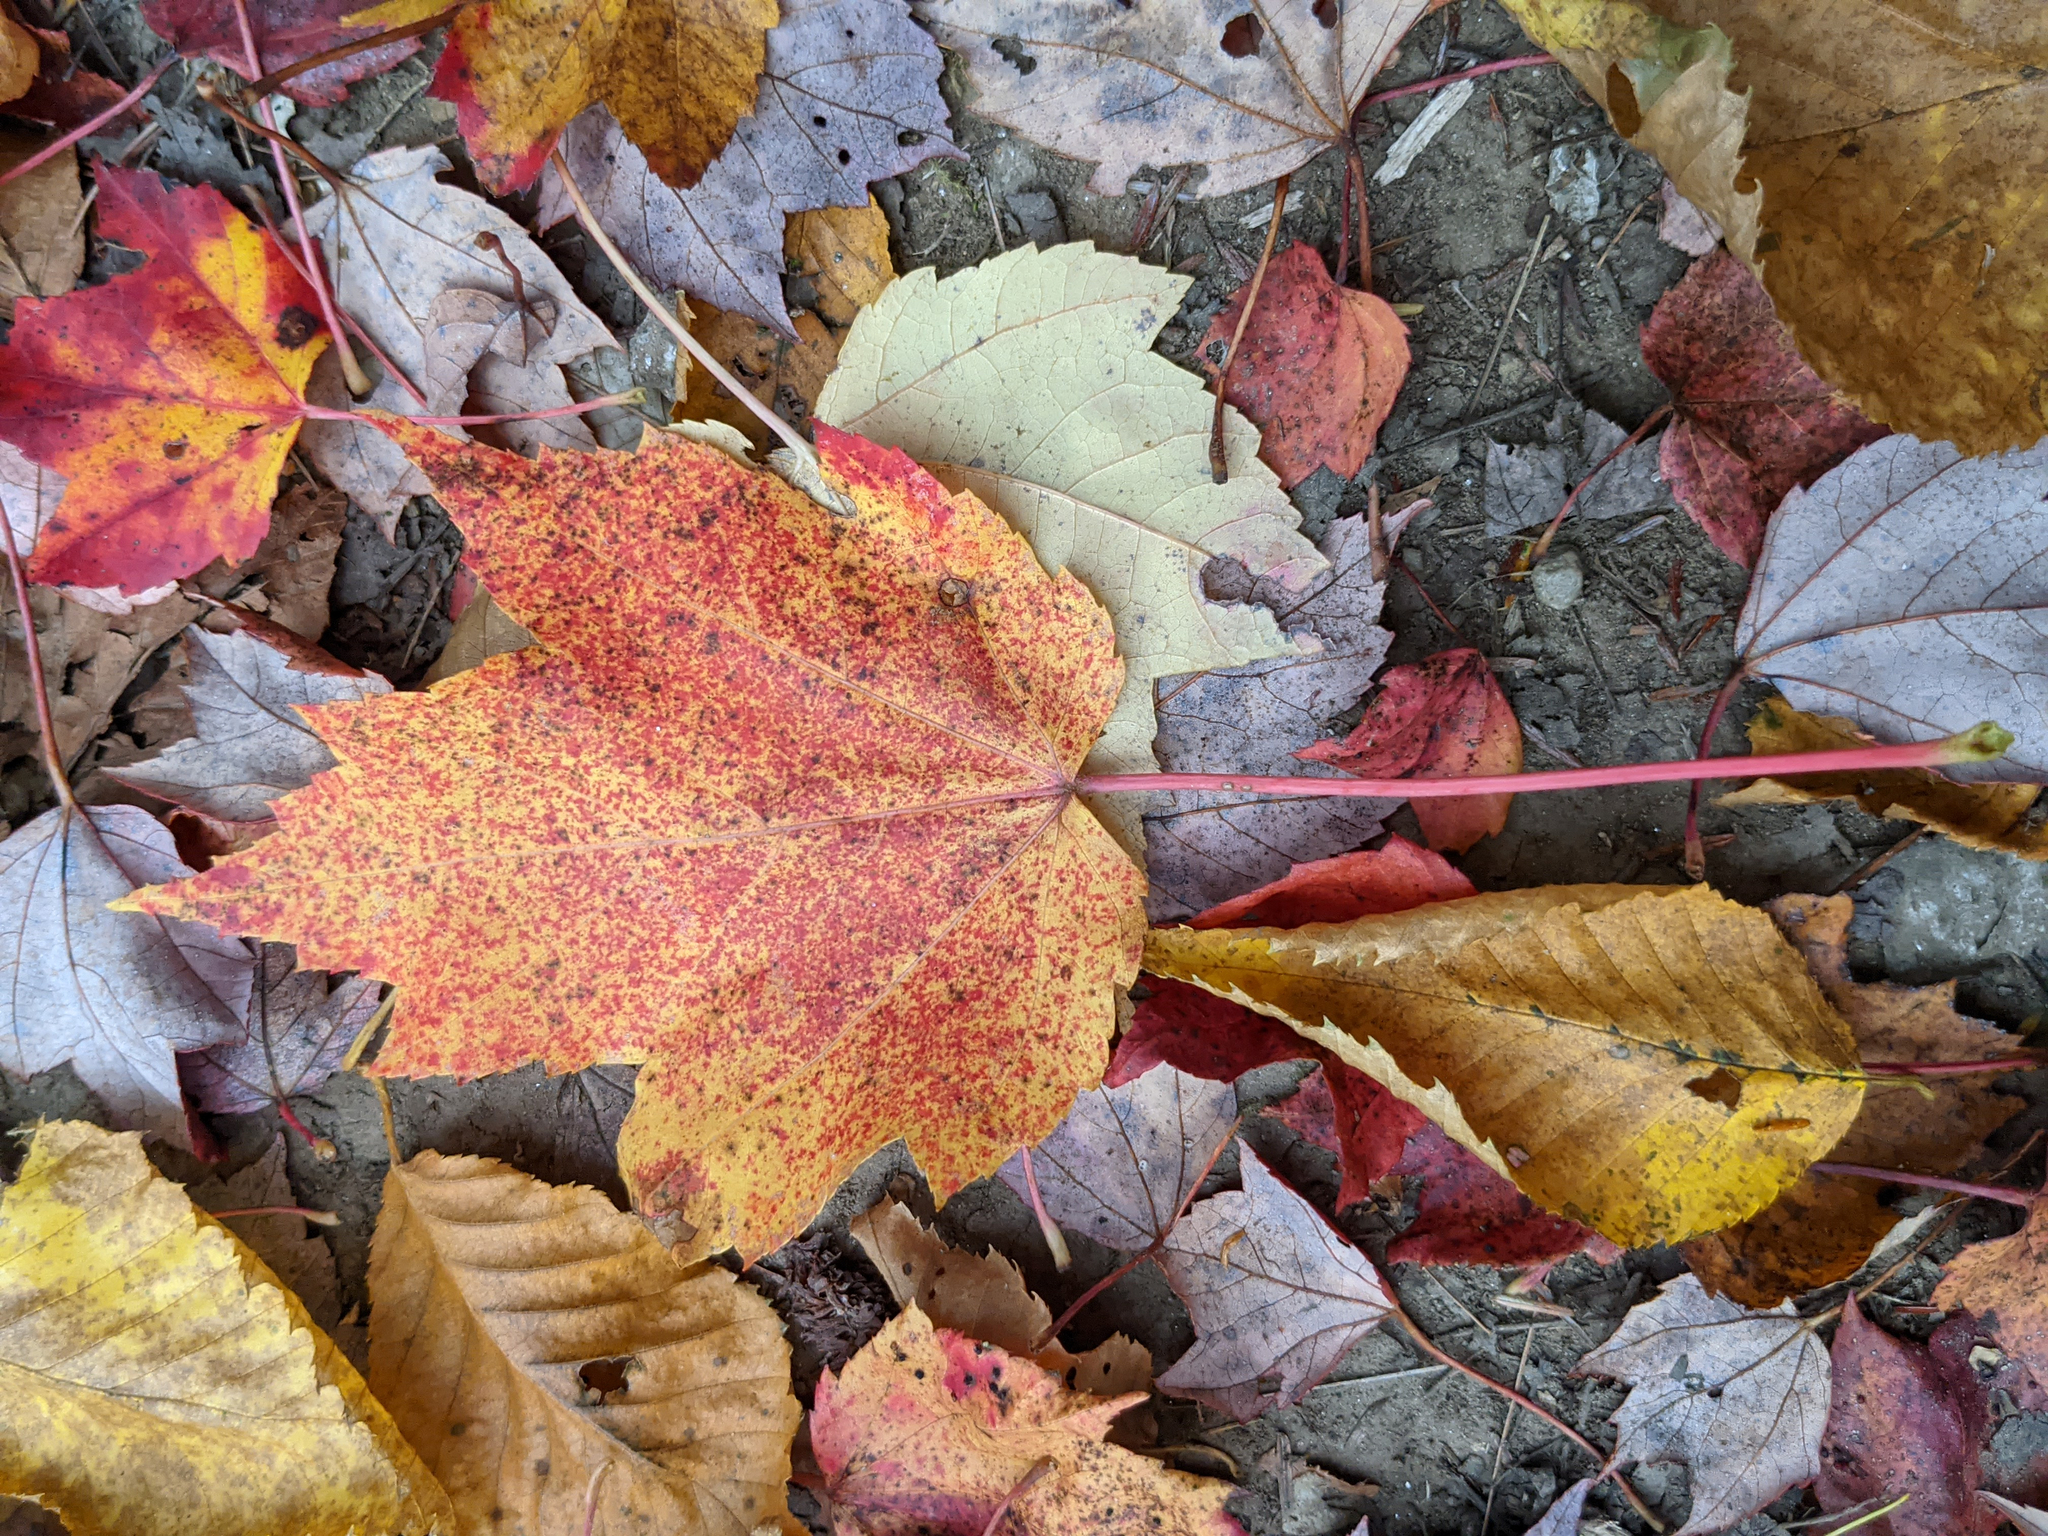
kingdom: Plantae
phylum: Tracheophyta
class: Magnoliopsida
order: Sapindales
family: Sapindaceae
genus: Acer
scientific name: Acer rubrum
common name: Red maple
